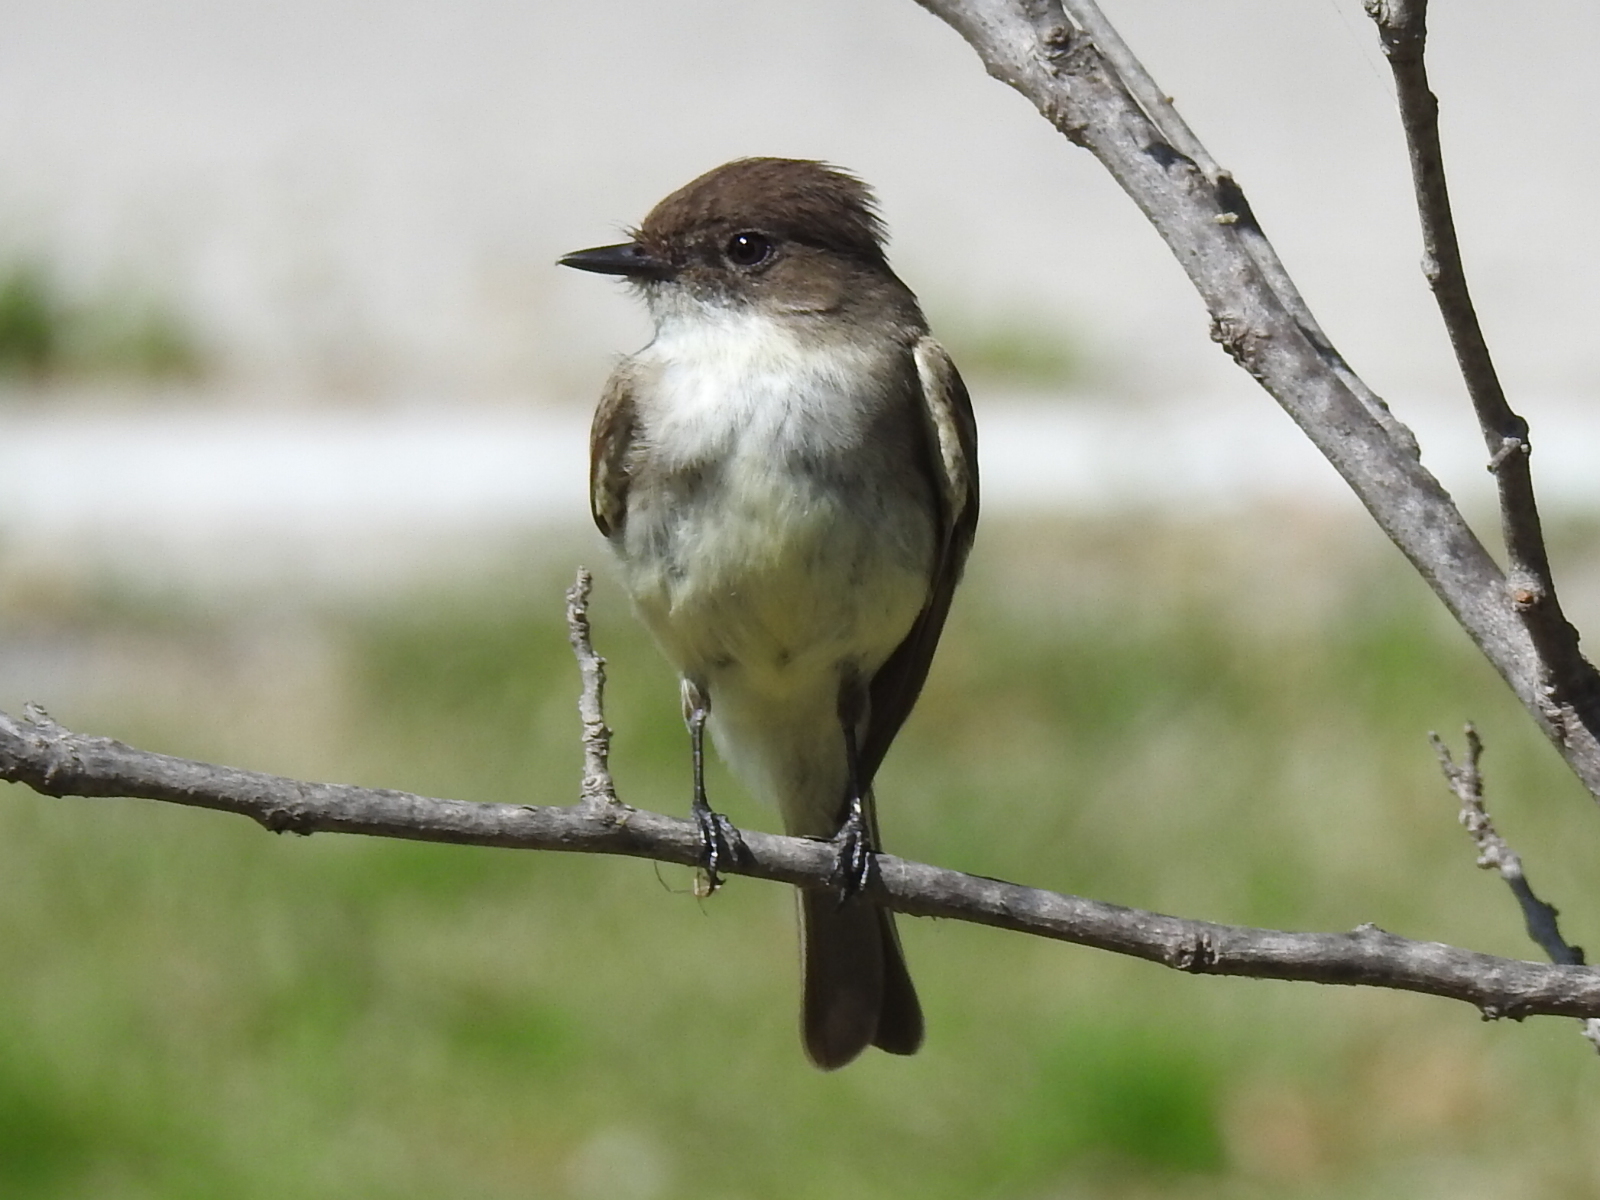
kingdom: Animalia
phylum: Chordata
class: Aves
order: Passeriformes
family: Tyrannidae
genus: Sayornis
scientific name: Sayornis phoebe
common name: Eastern phoebe
